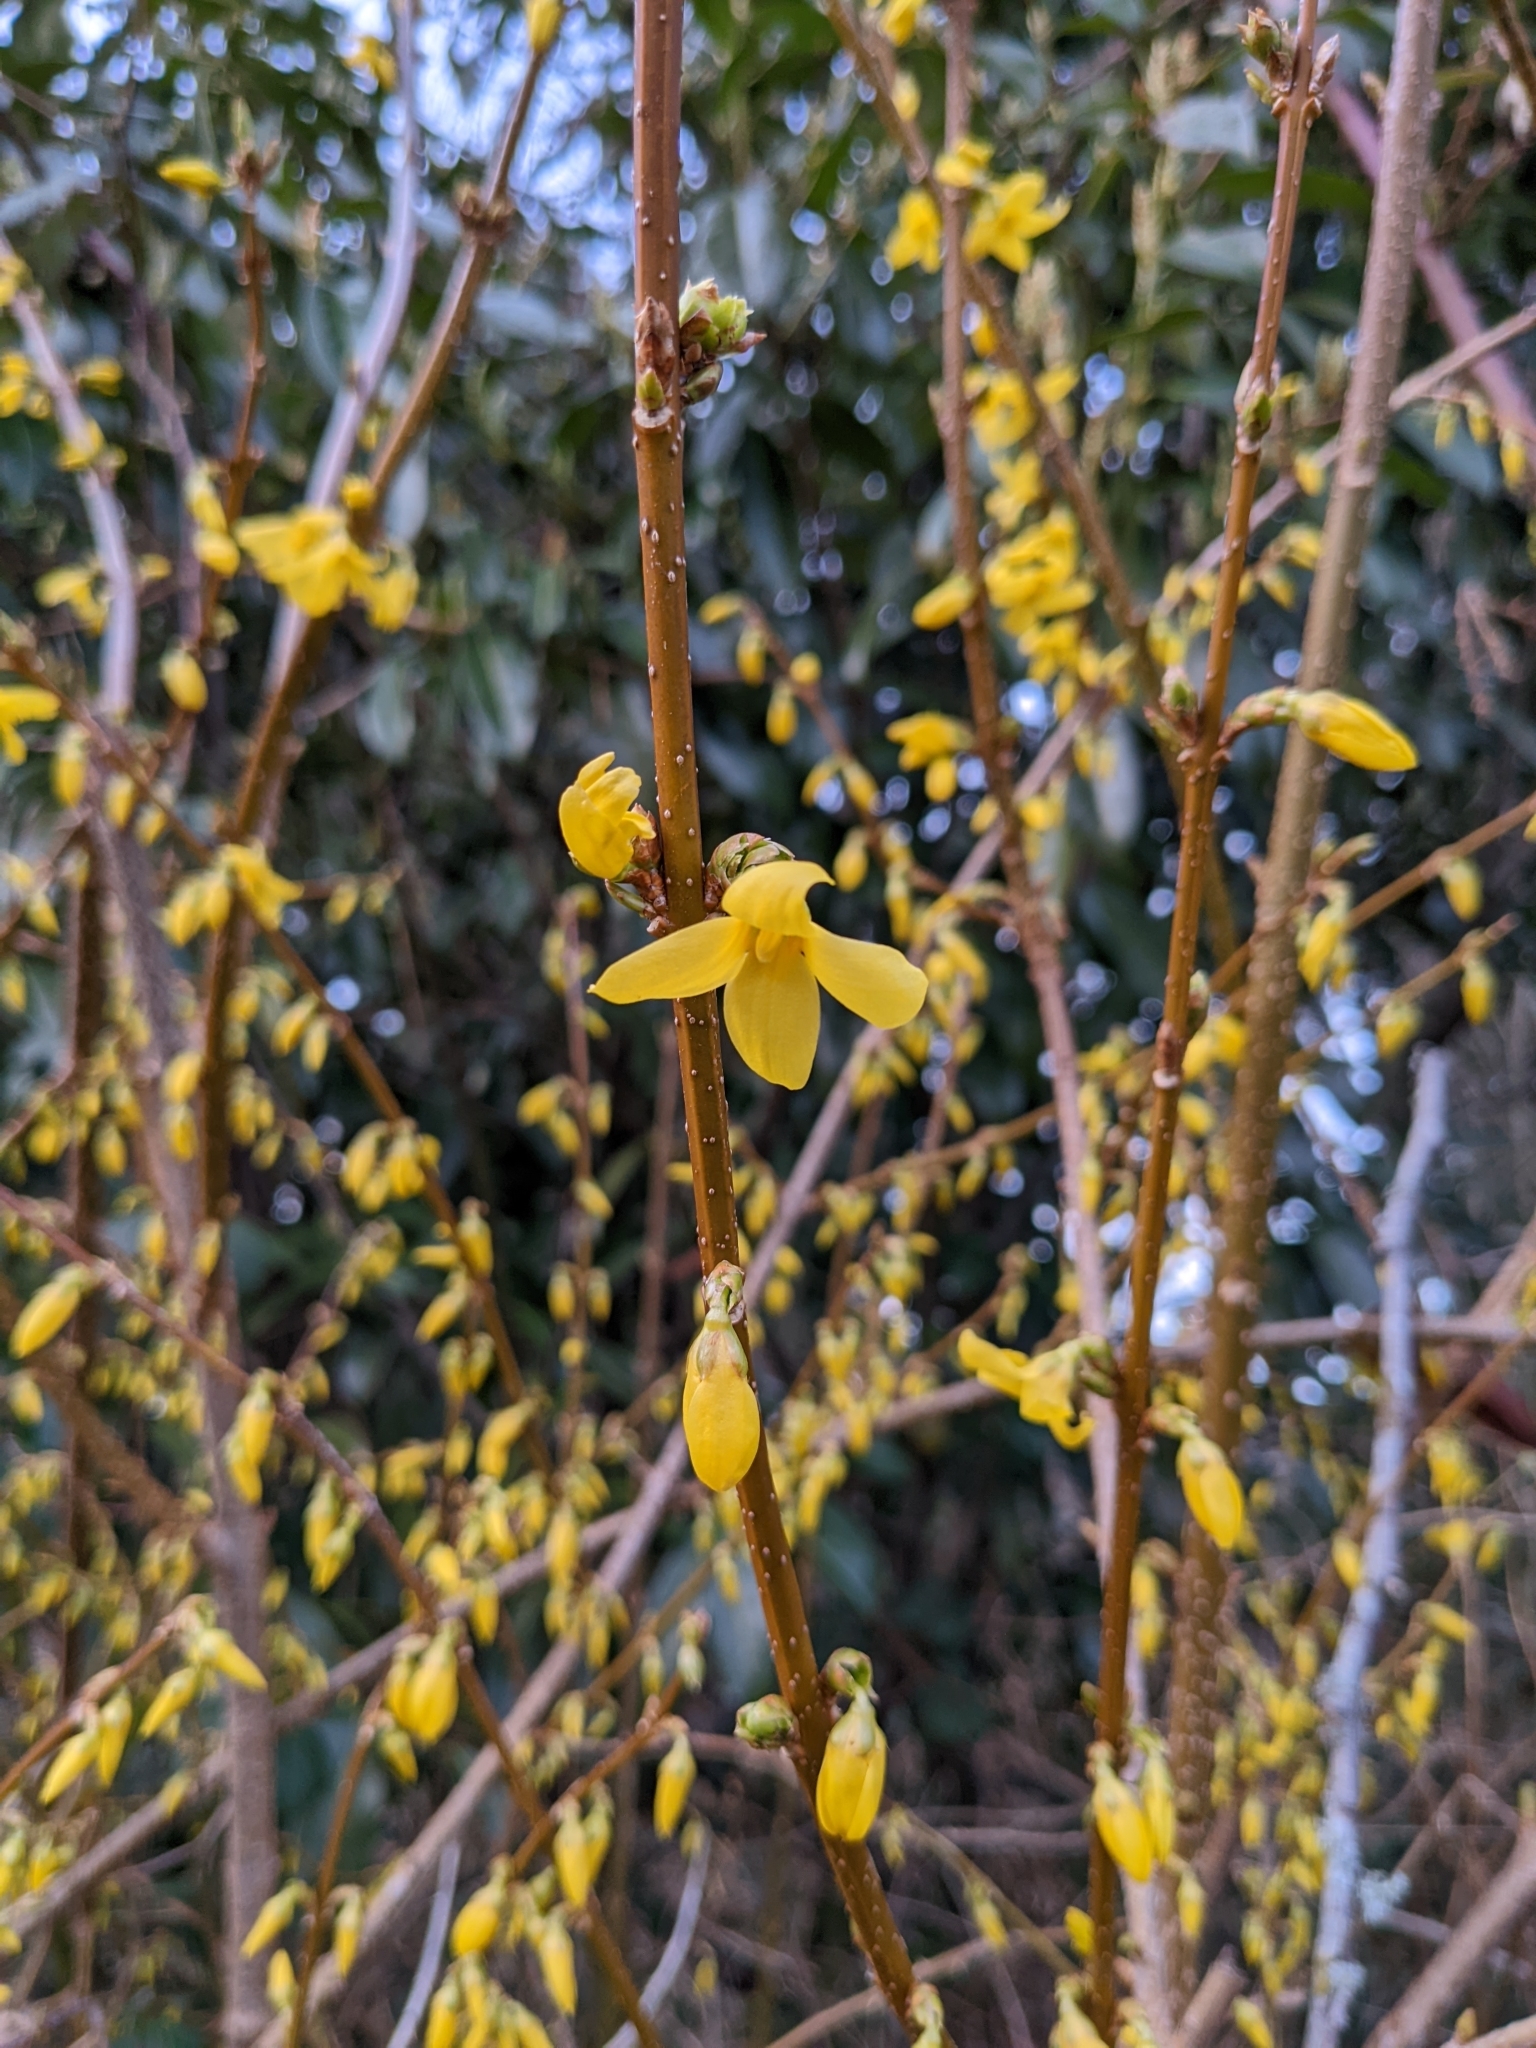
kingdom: Plantae
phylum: Tracheophyta
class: Magnoliopsida
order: Lamiales
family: Oleaceae
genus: Forsythia
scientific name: Forsythia intermedia
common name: Forsythia
